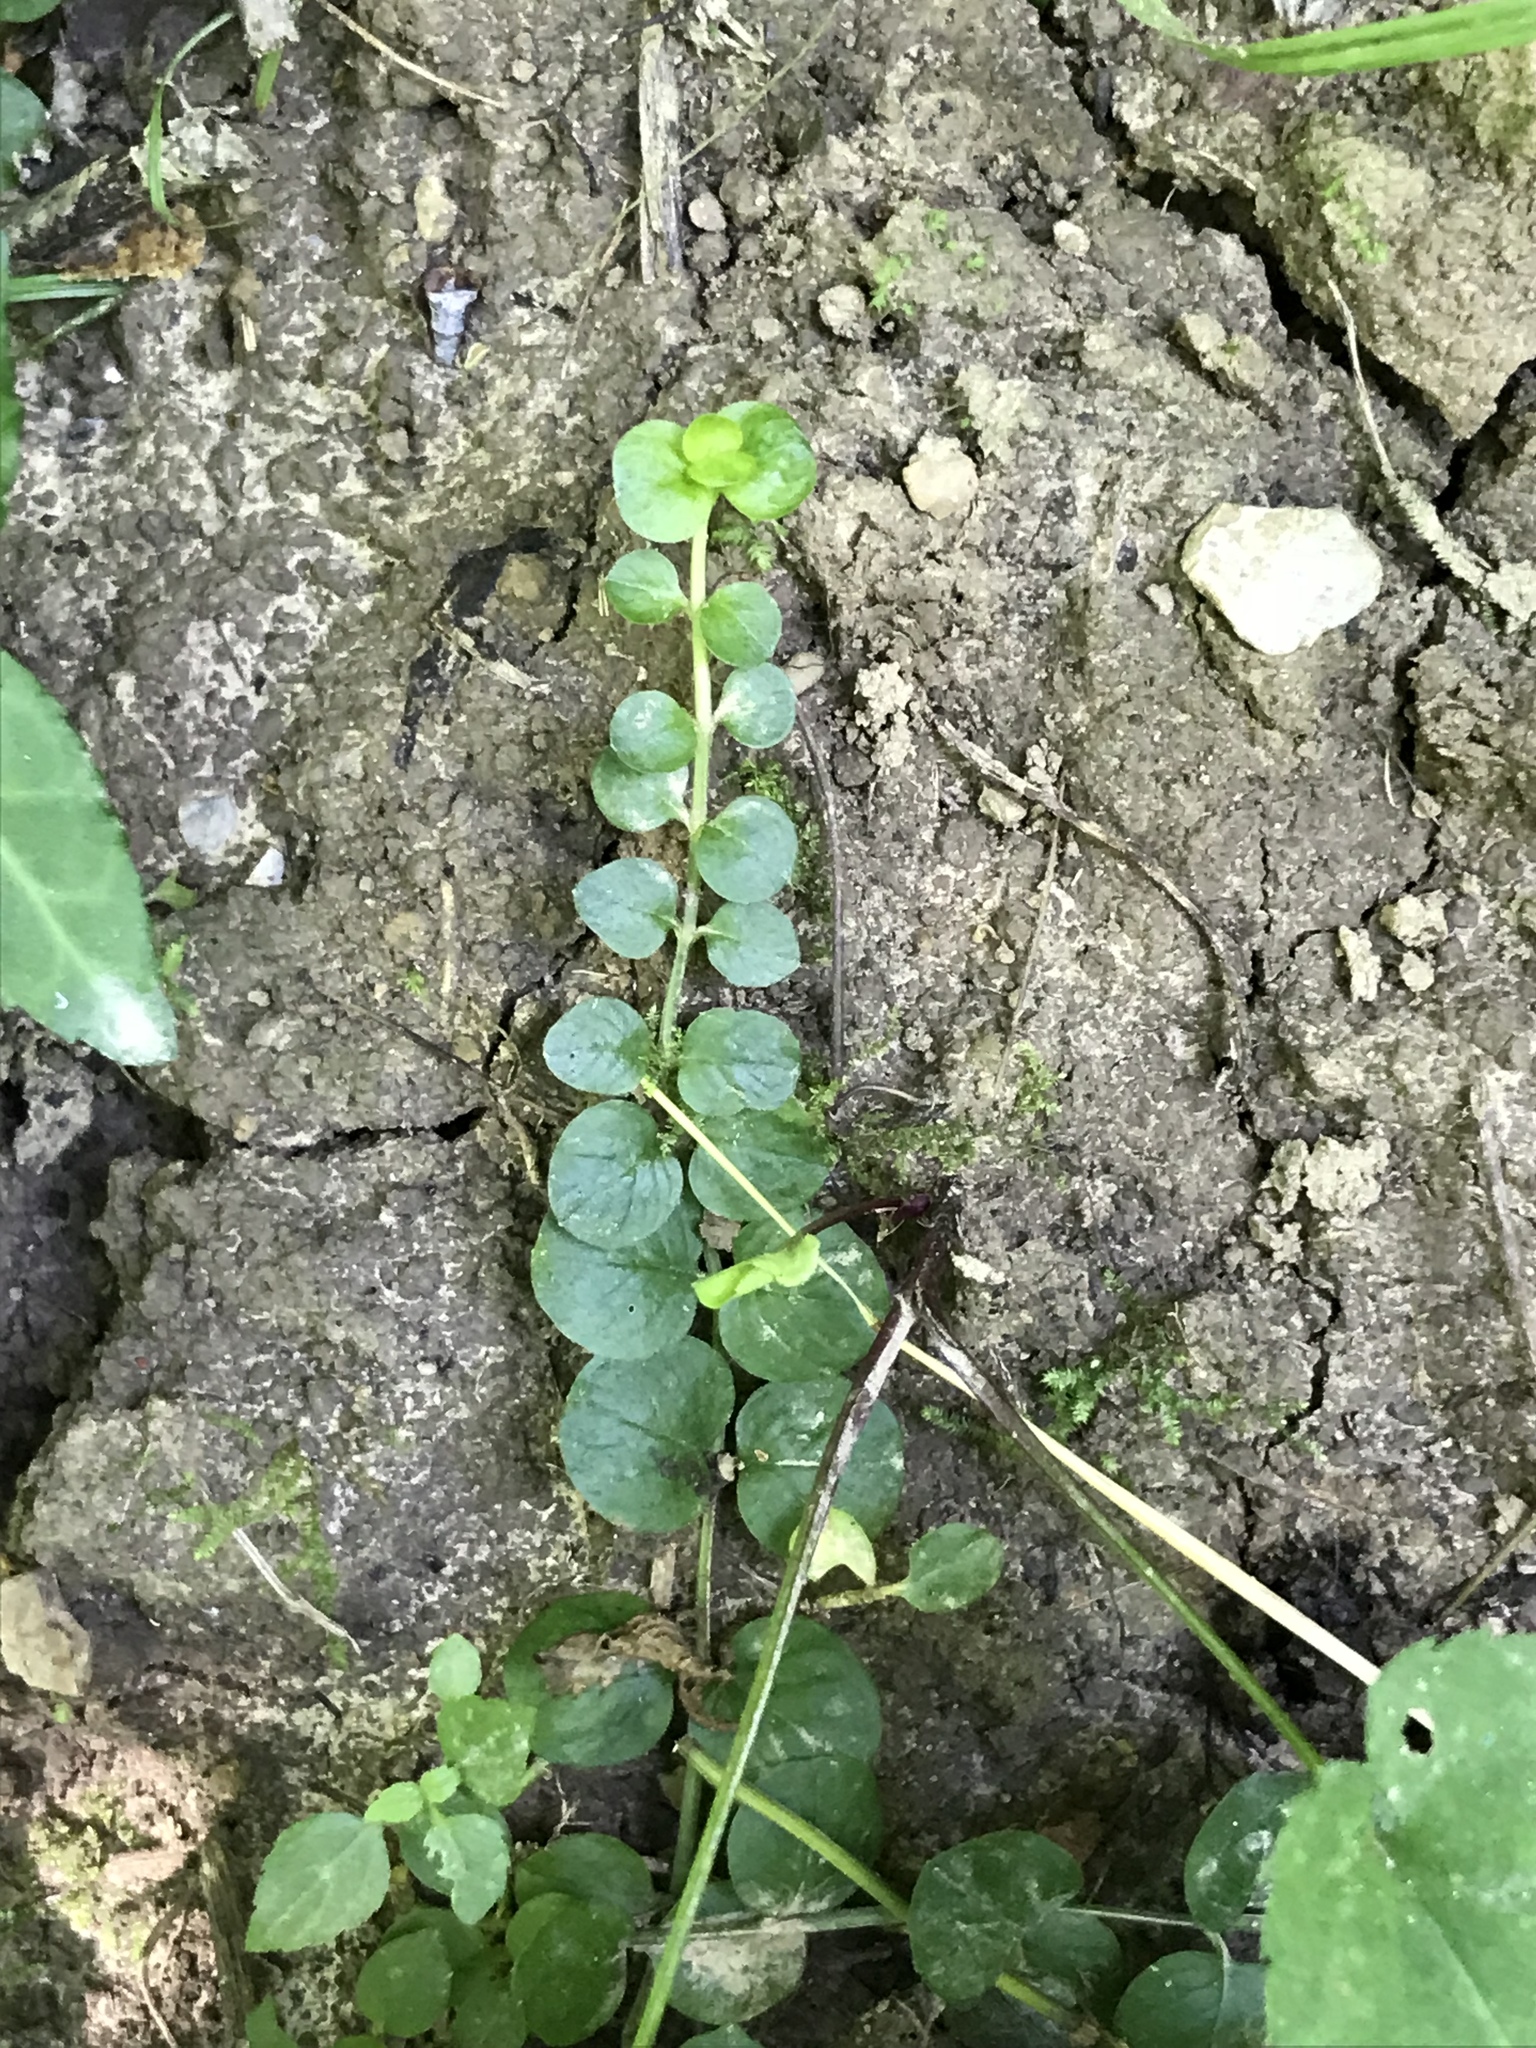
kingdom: Plantae
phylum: Tracheophyta
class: Magnoliopsida
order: Ericales
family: Primulaceae
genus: Lysimachia
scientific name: Lysimachia nummularia
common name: Moneywort
